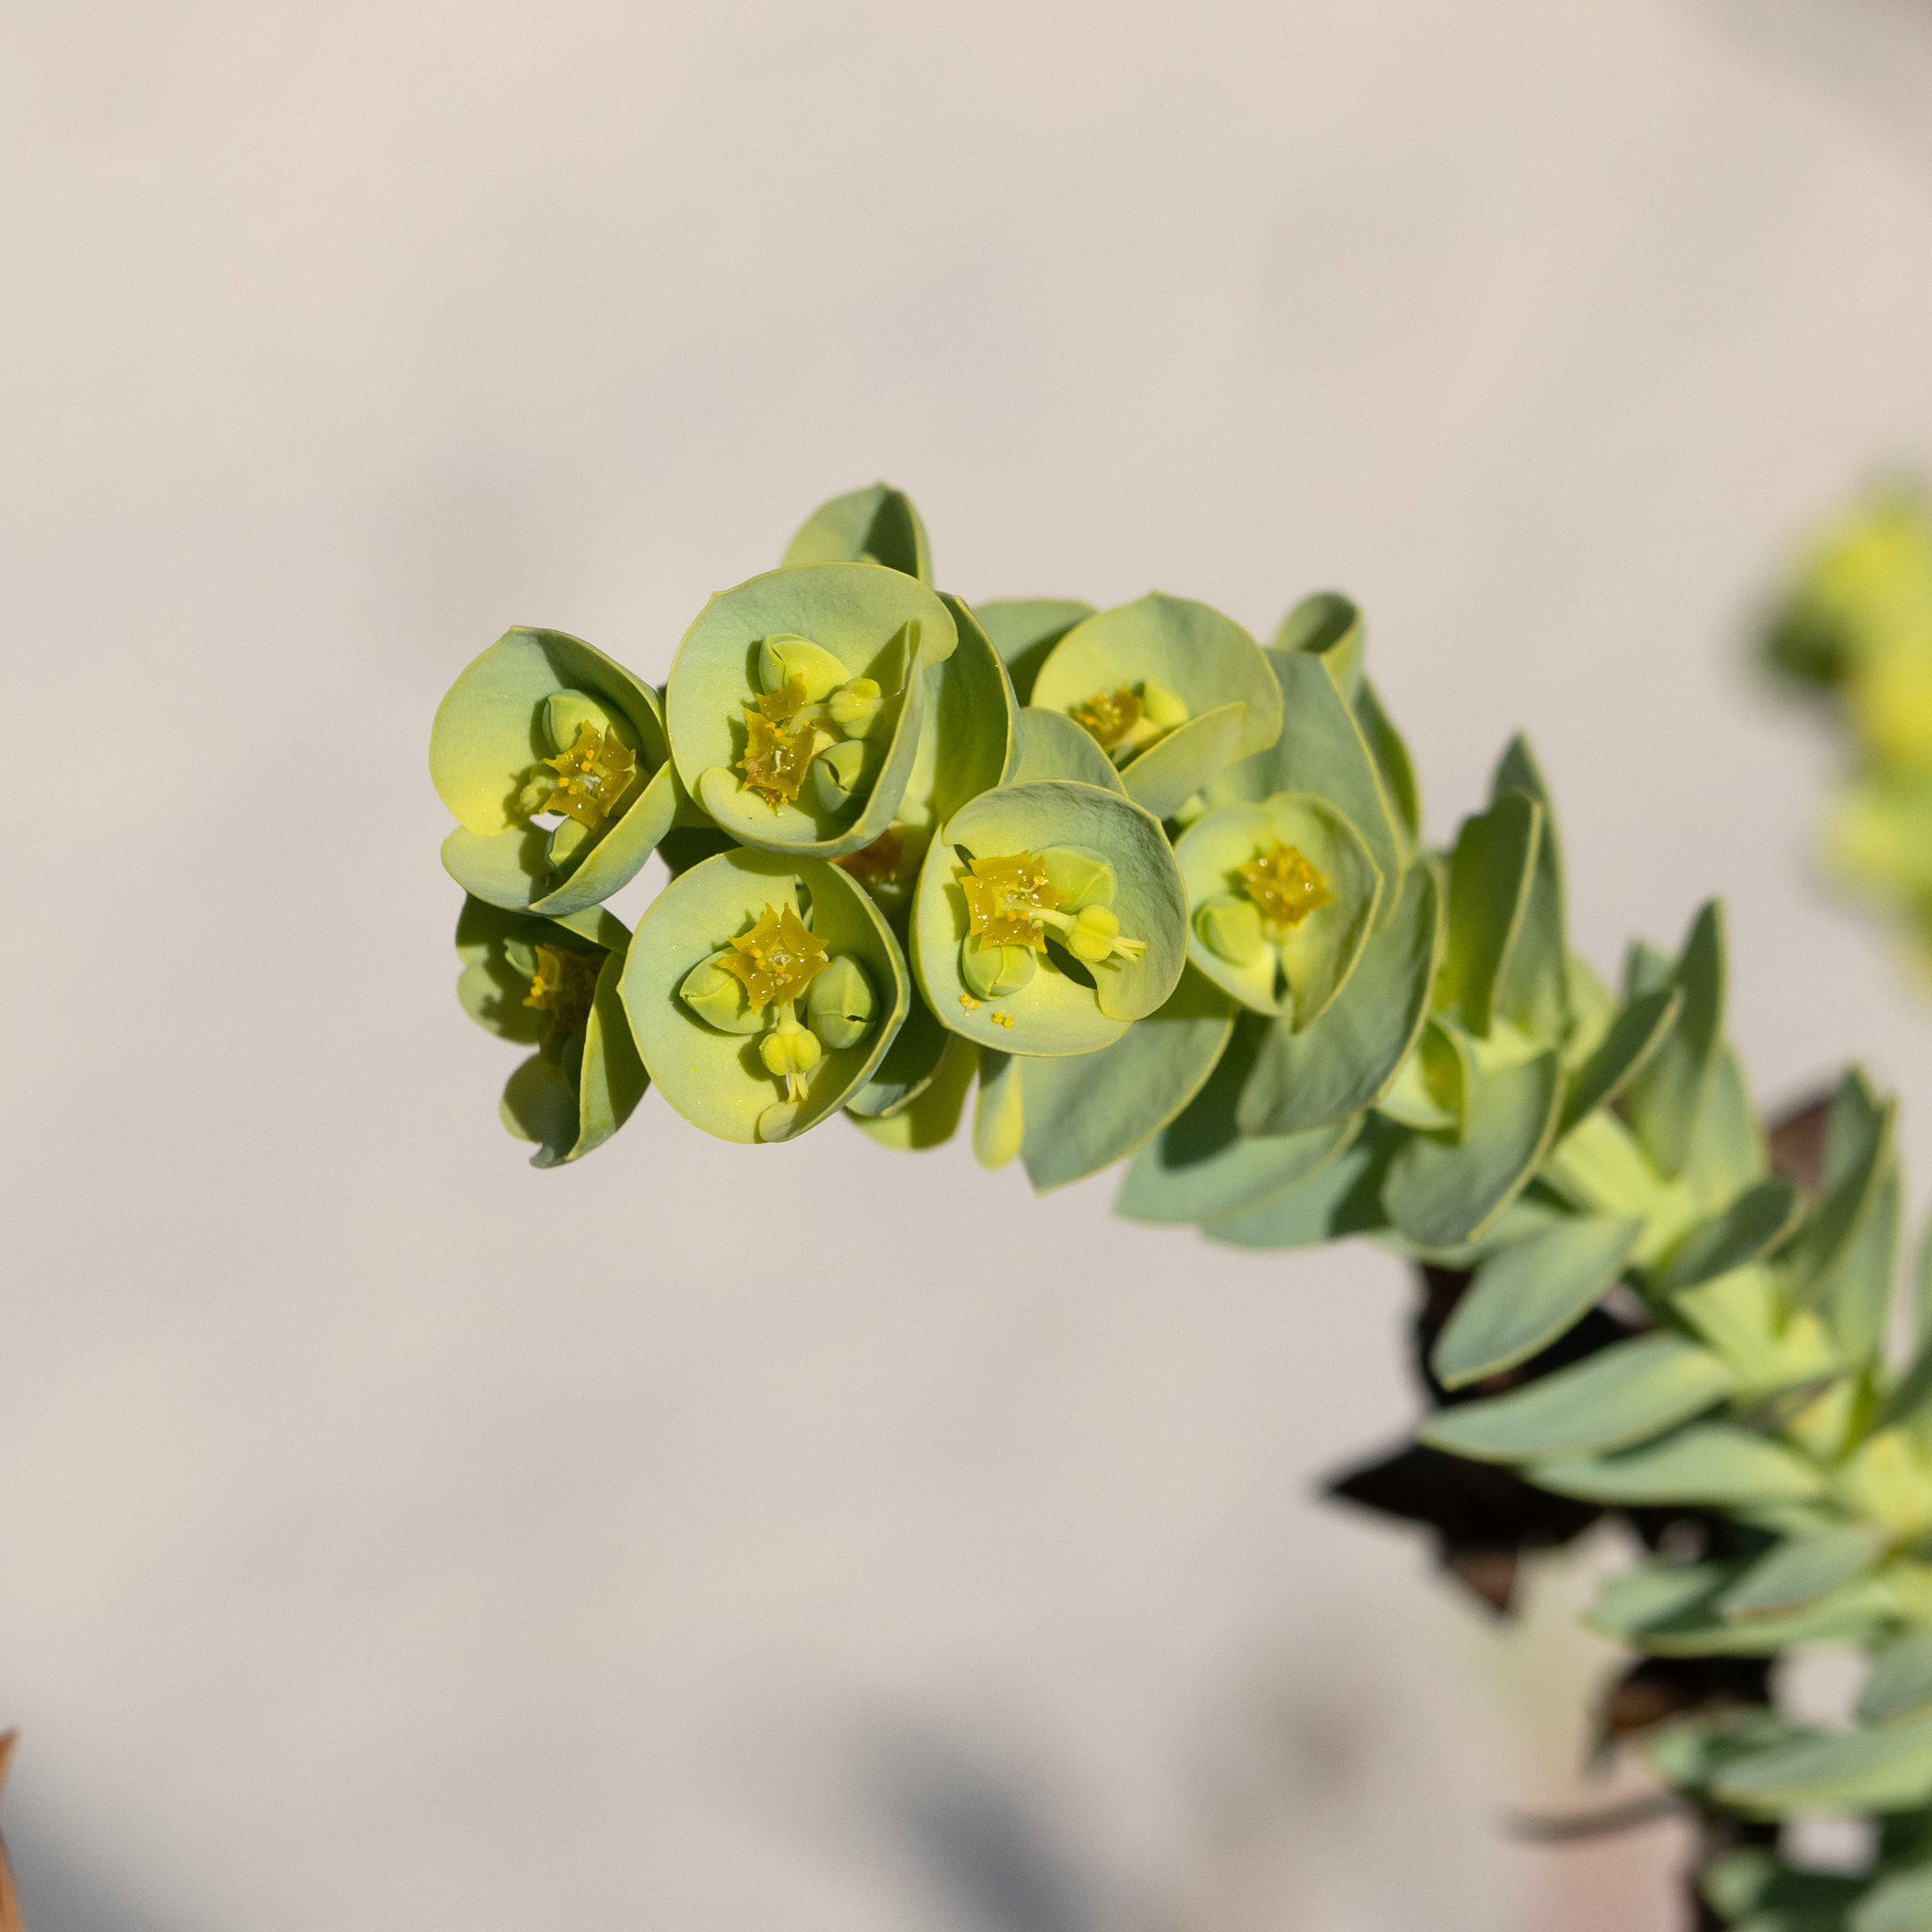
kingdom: Plantae
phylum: Tracheophyta
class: Magnoliopsida
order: Malpighiales
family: Euphorbiaceae
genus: Euphorbia
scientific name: Euphorbia paralias
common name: Sea spurge
